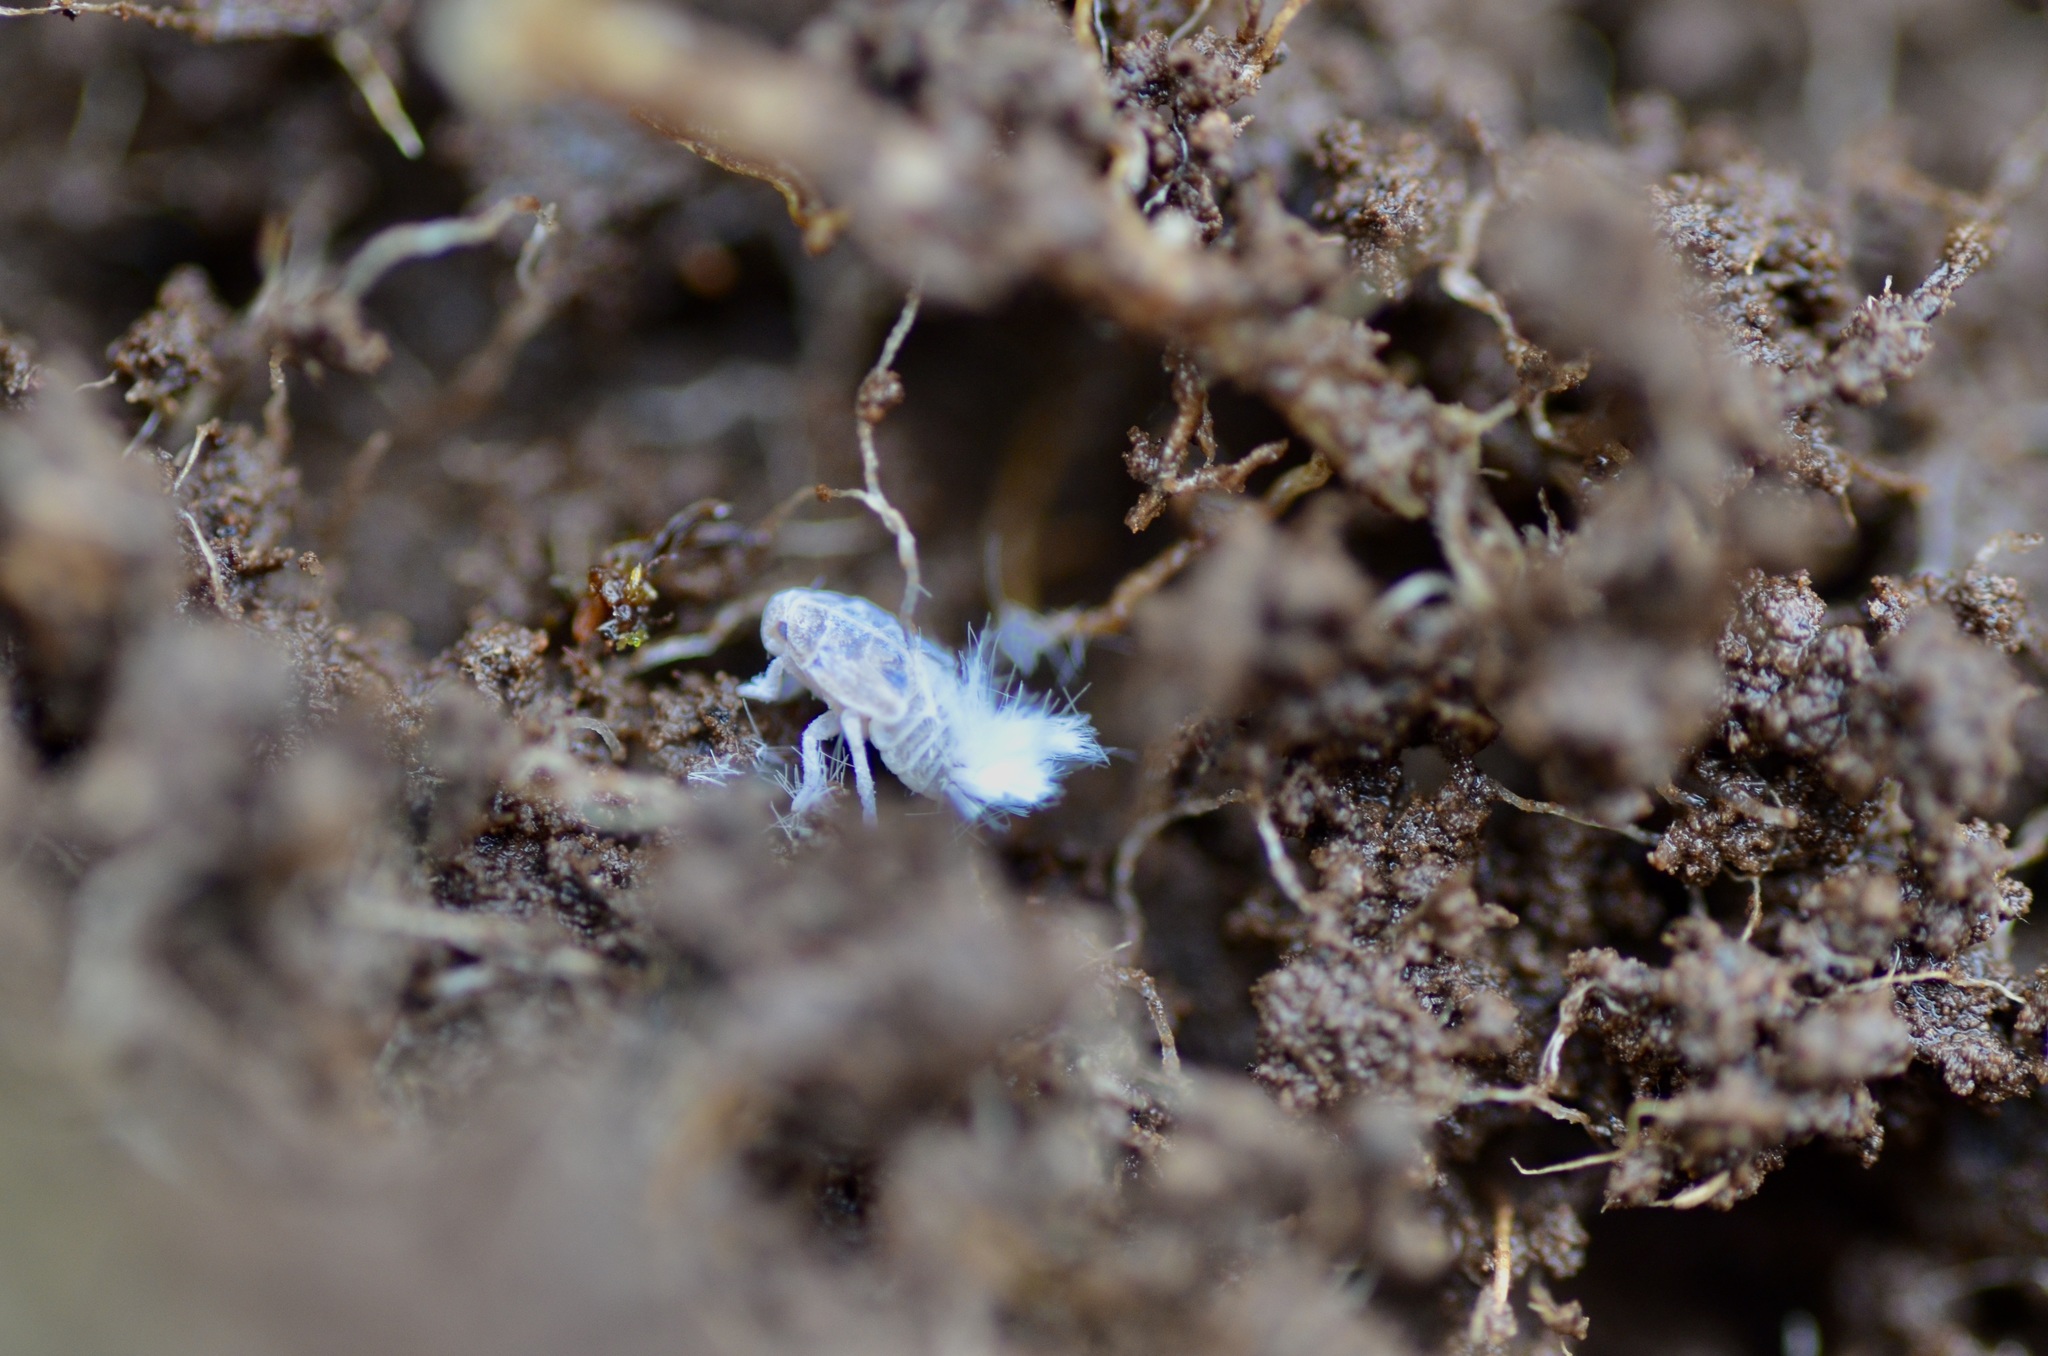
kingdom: Animalia
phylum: Arthropoda
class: Insecta
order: Hemiptera
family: Ricaniidae
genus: Scolypopa
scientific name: Scolypopa australis
